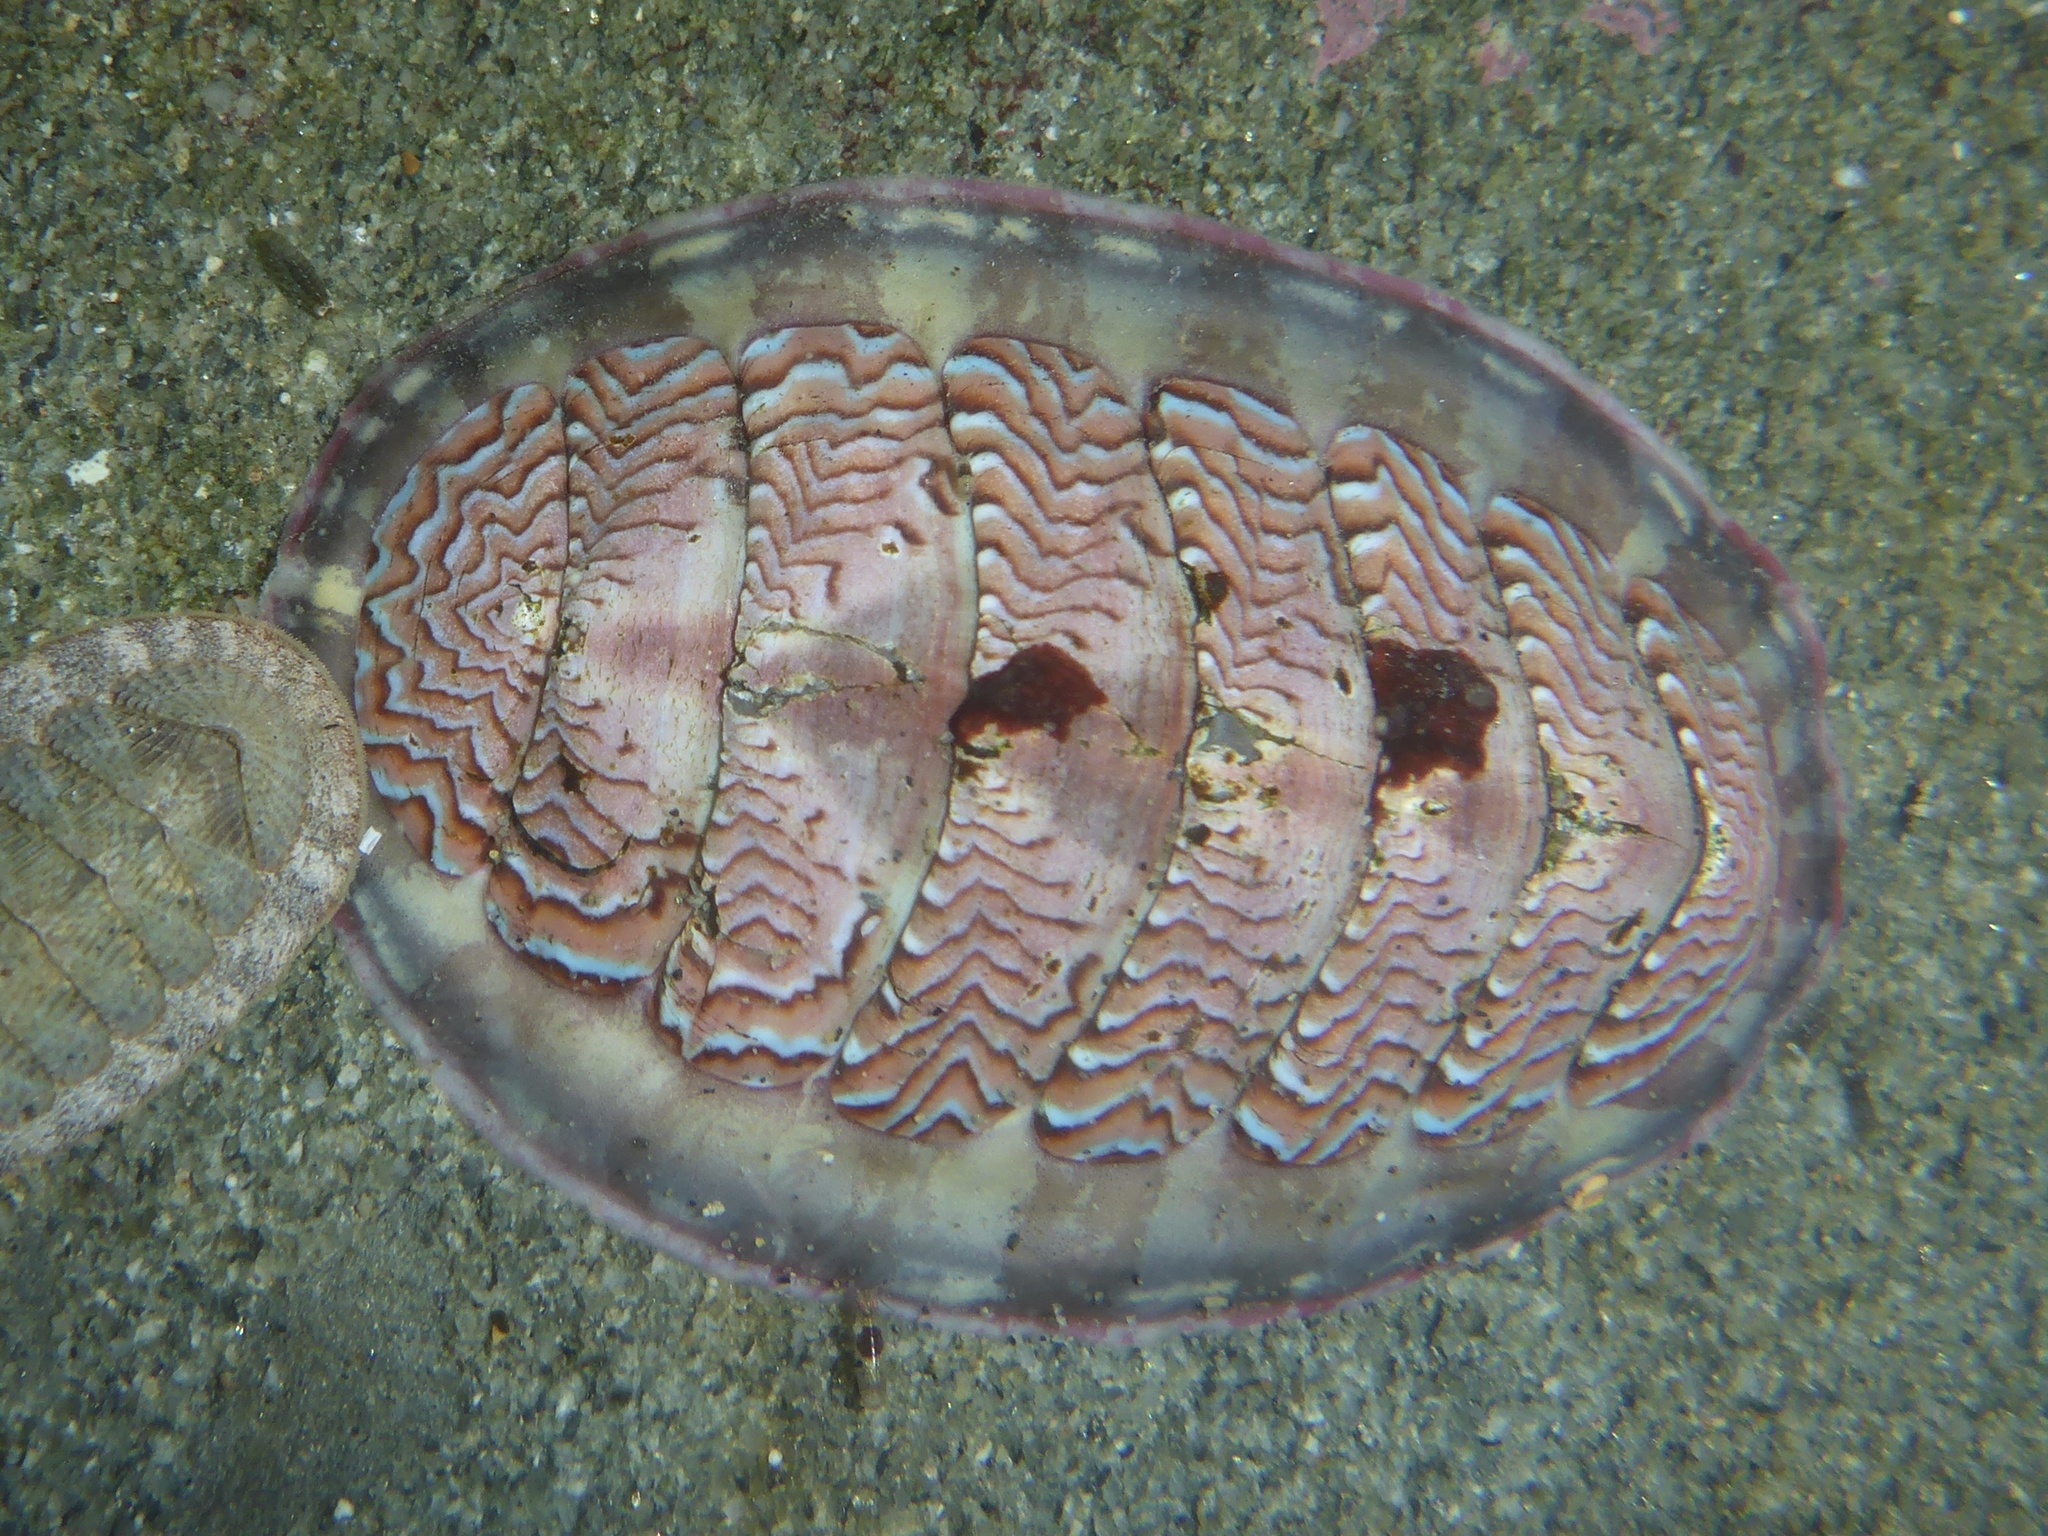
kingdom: Animalia
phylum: Mollusca
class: Polyplacophora
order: Chitonida
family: Tonicellidae
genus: Tonicella
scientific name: Tonicella lokii
